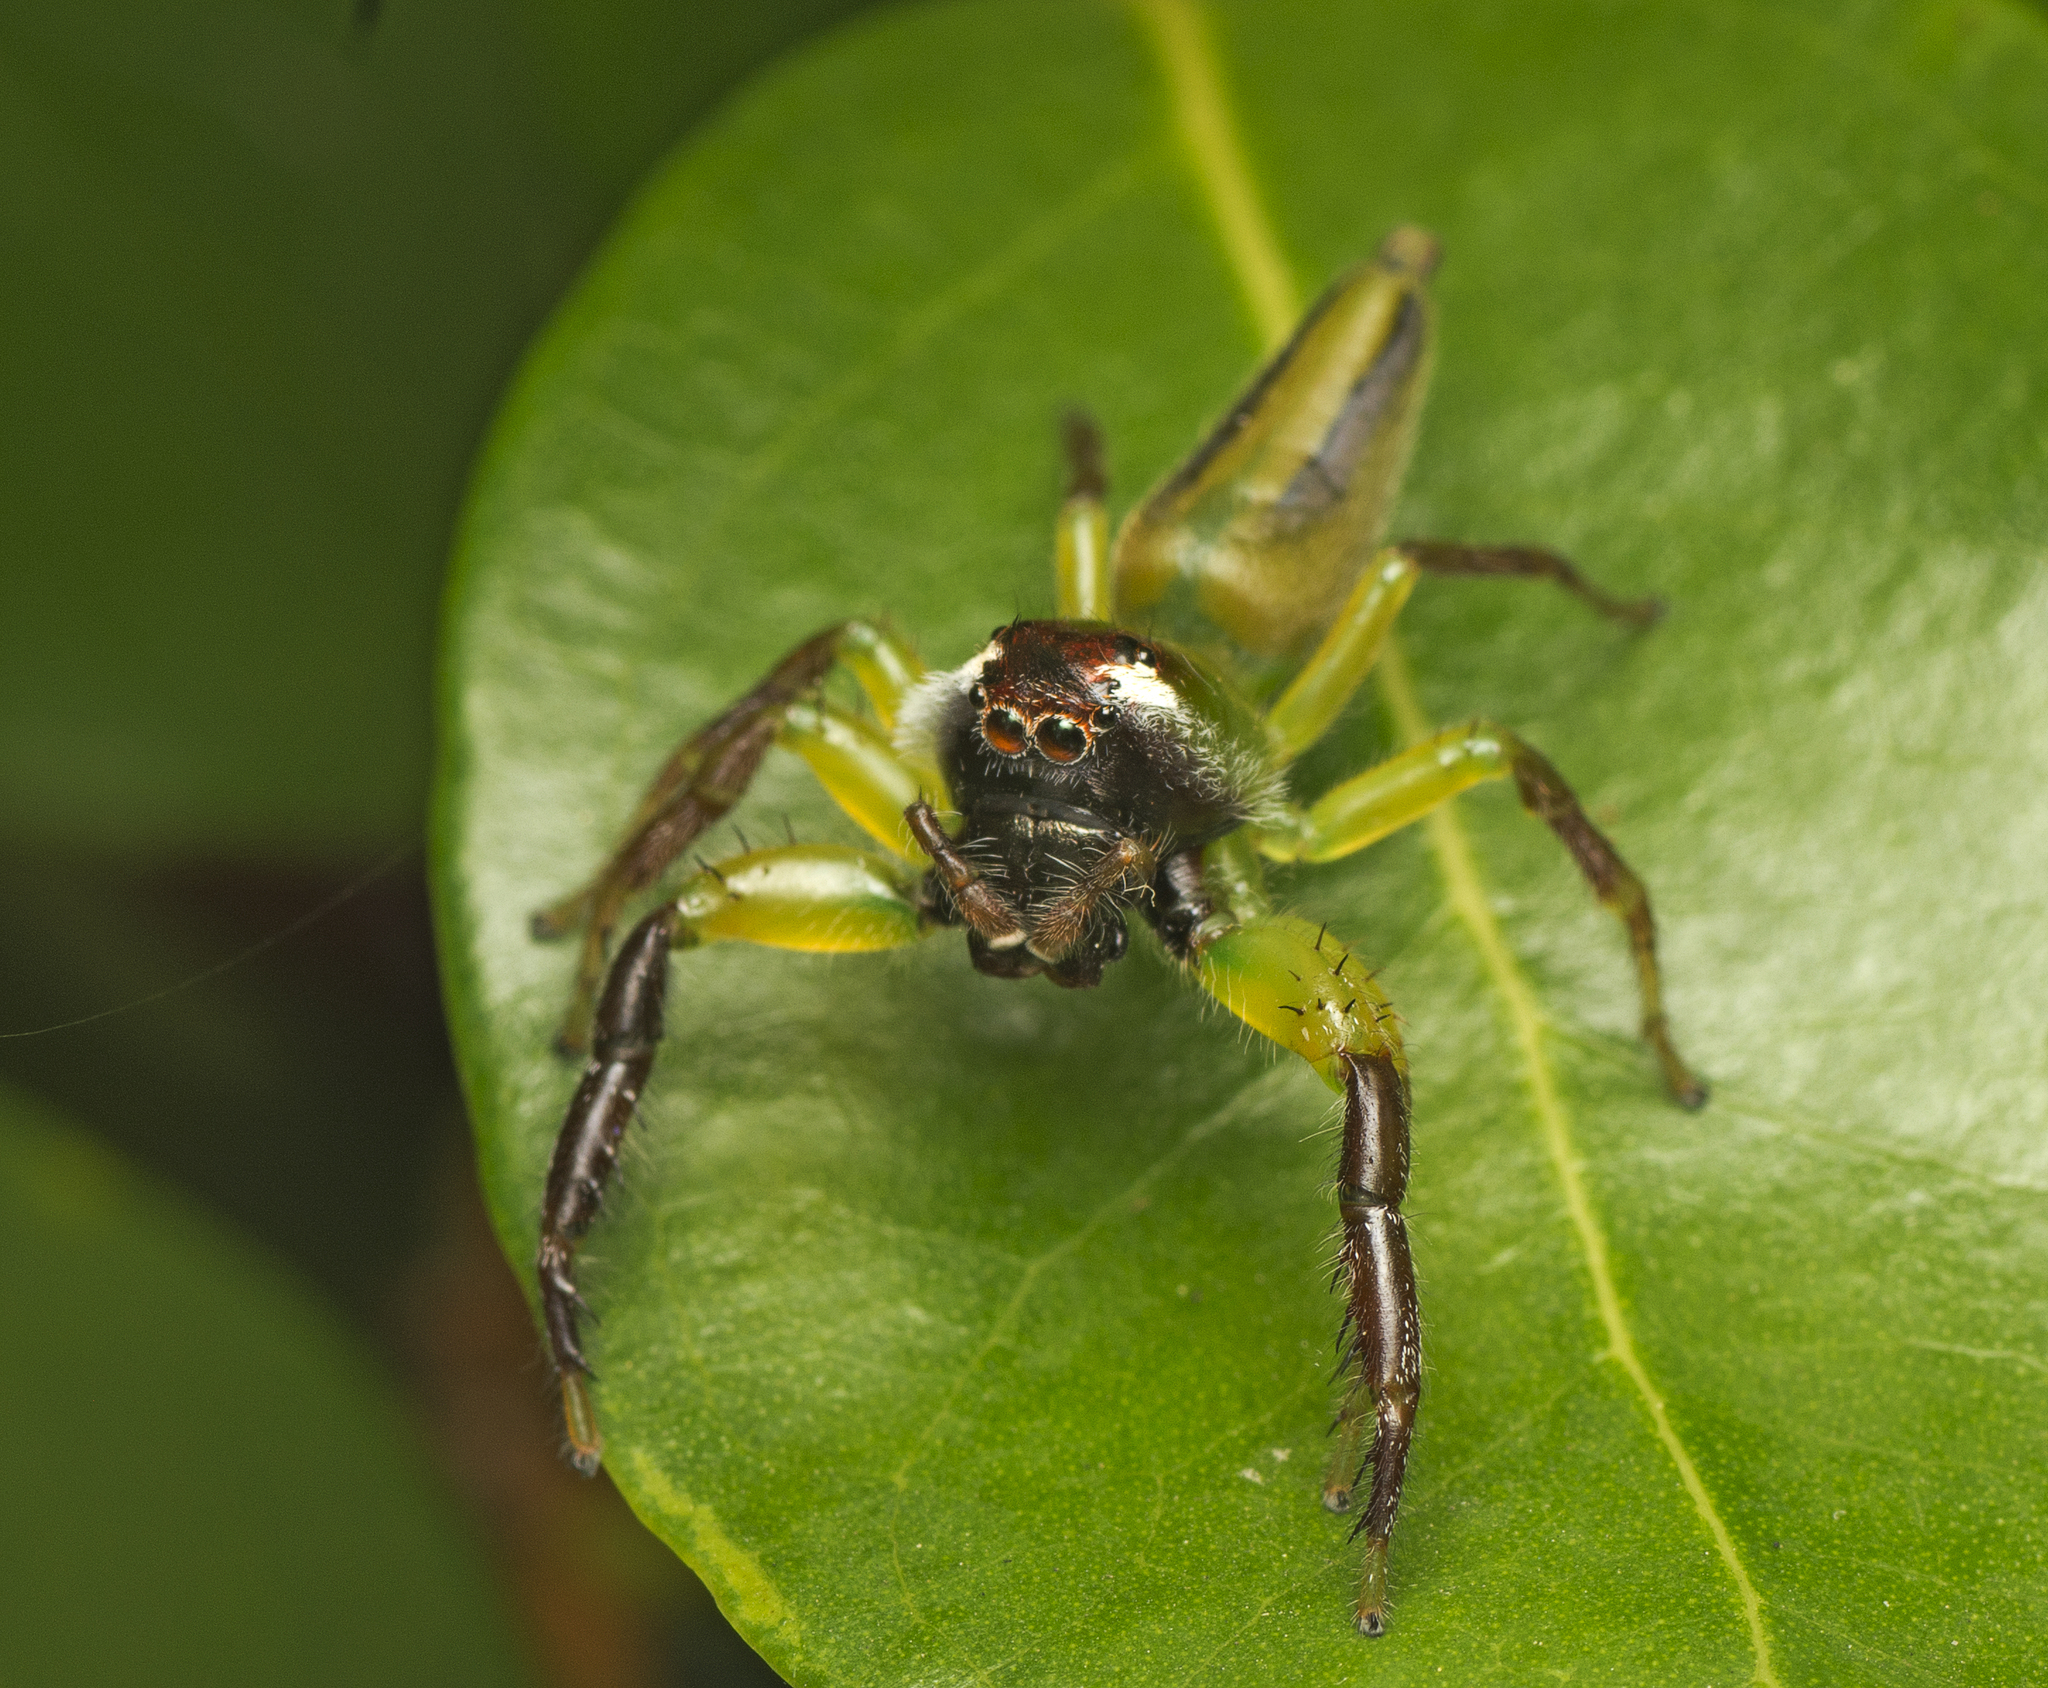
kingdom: Animalia
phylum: Arthropoda
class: Arachnida
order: Araneae
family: Salticidae
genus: Mopsus
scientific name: Mopsus mormon
